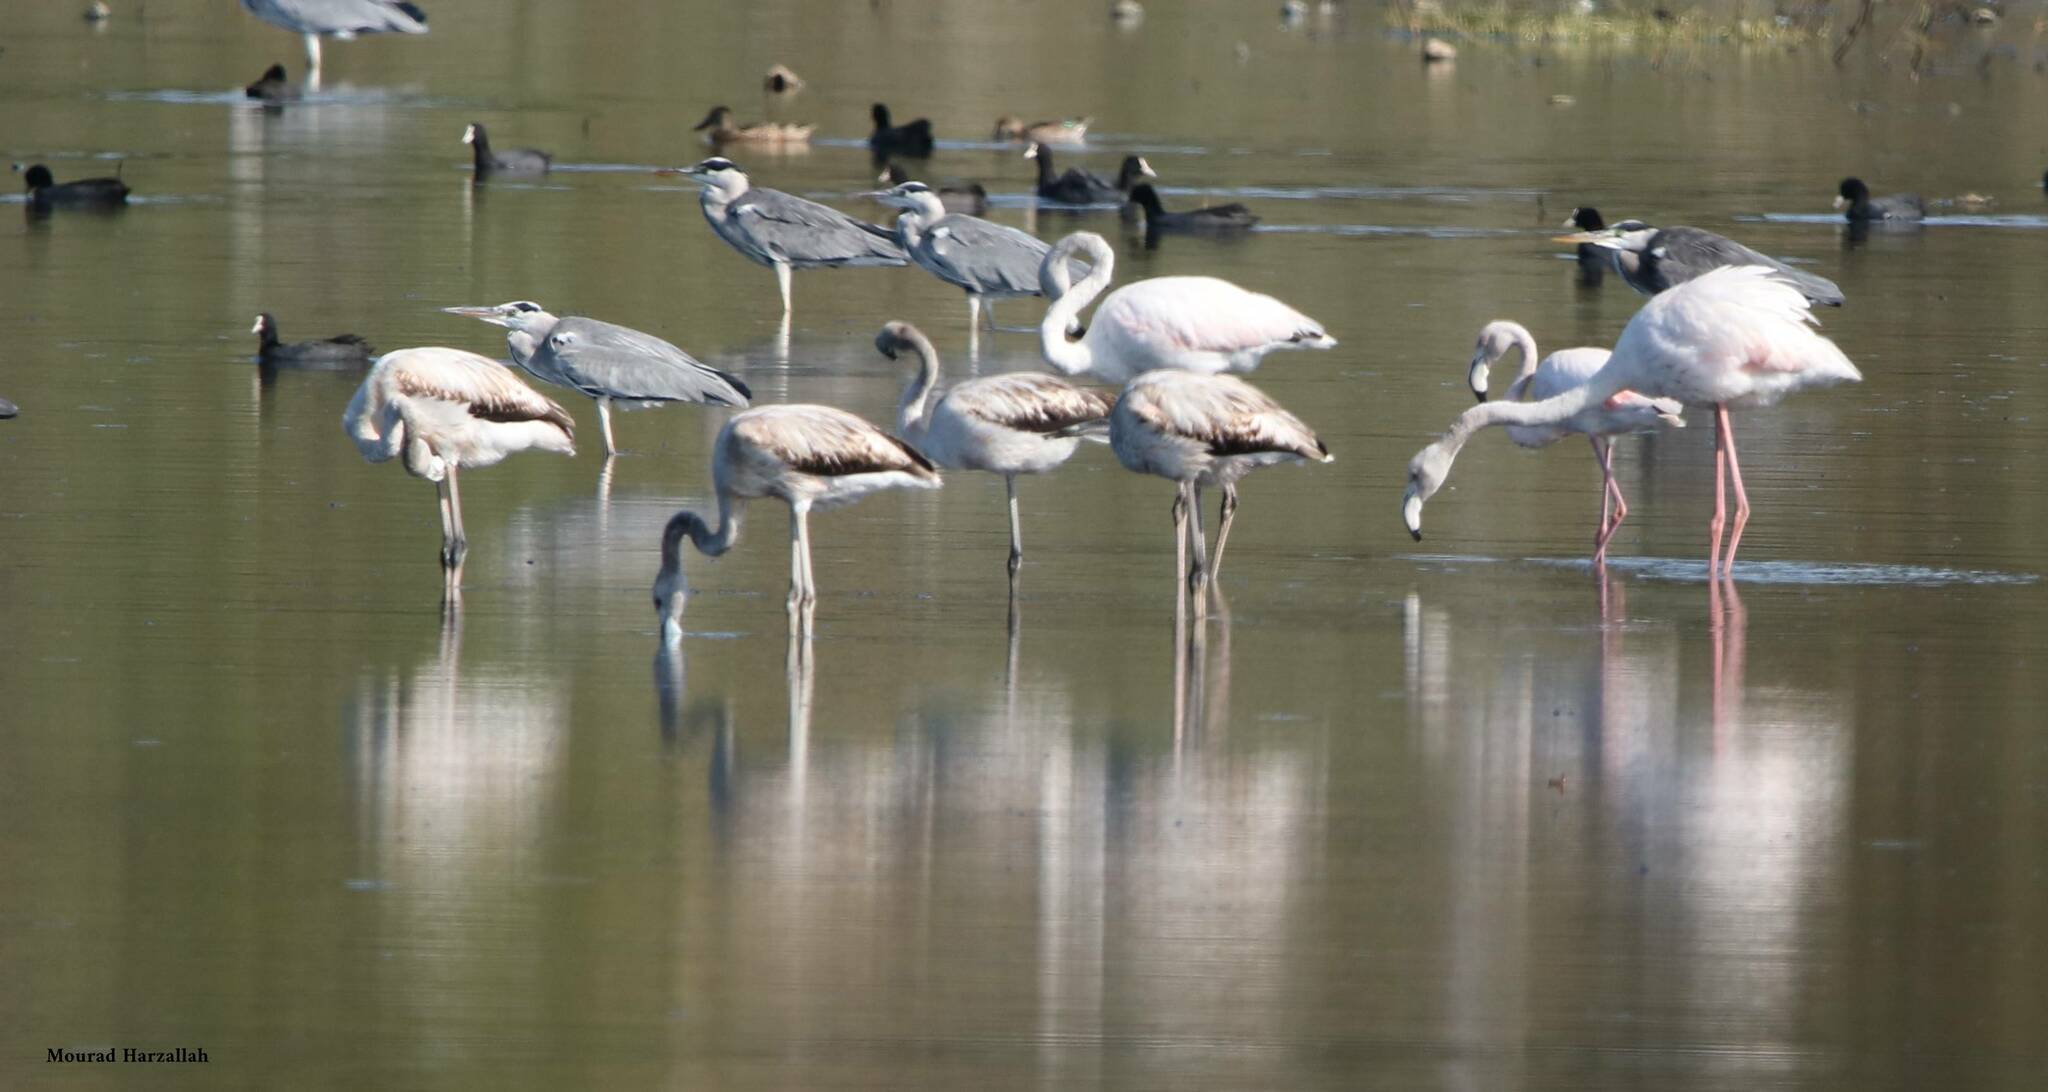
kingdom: Animalia
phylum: Chordata
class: Aves
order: Phoenicopteriformes
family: Phoenicopteridae
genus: Phoenicopterus
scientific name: Phoenicopterus roseus
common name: Greater flamingo
